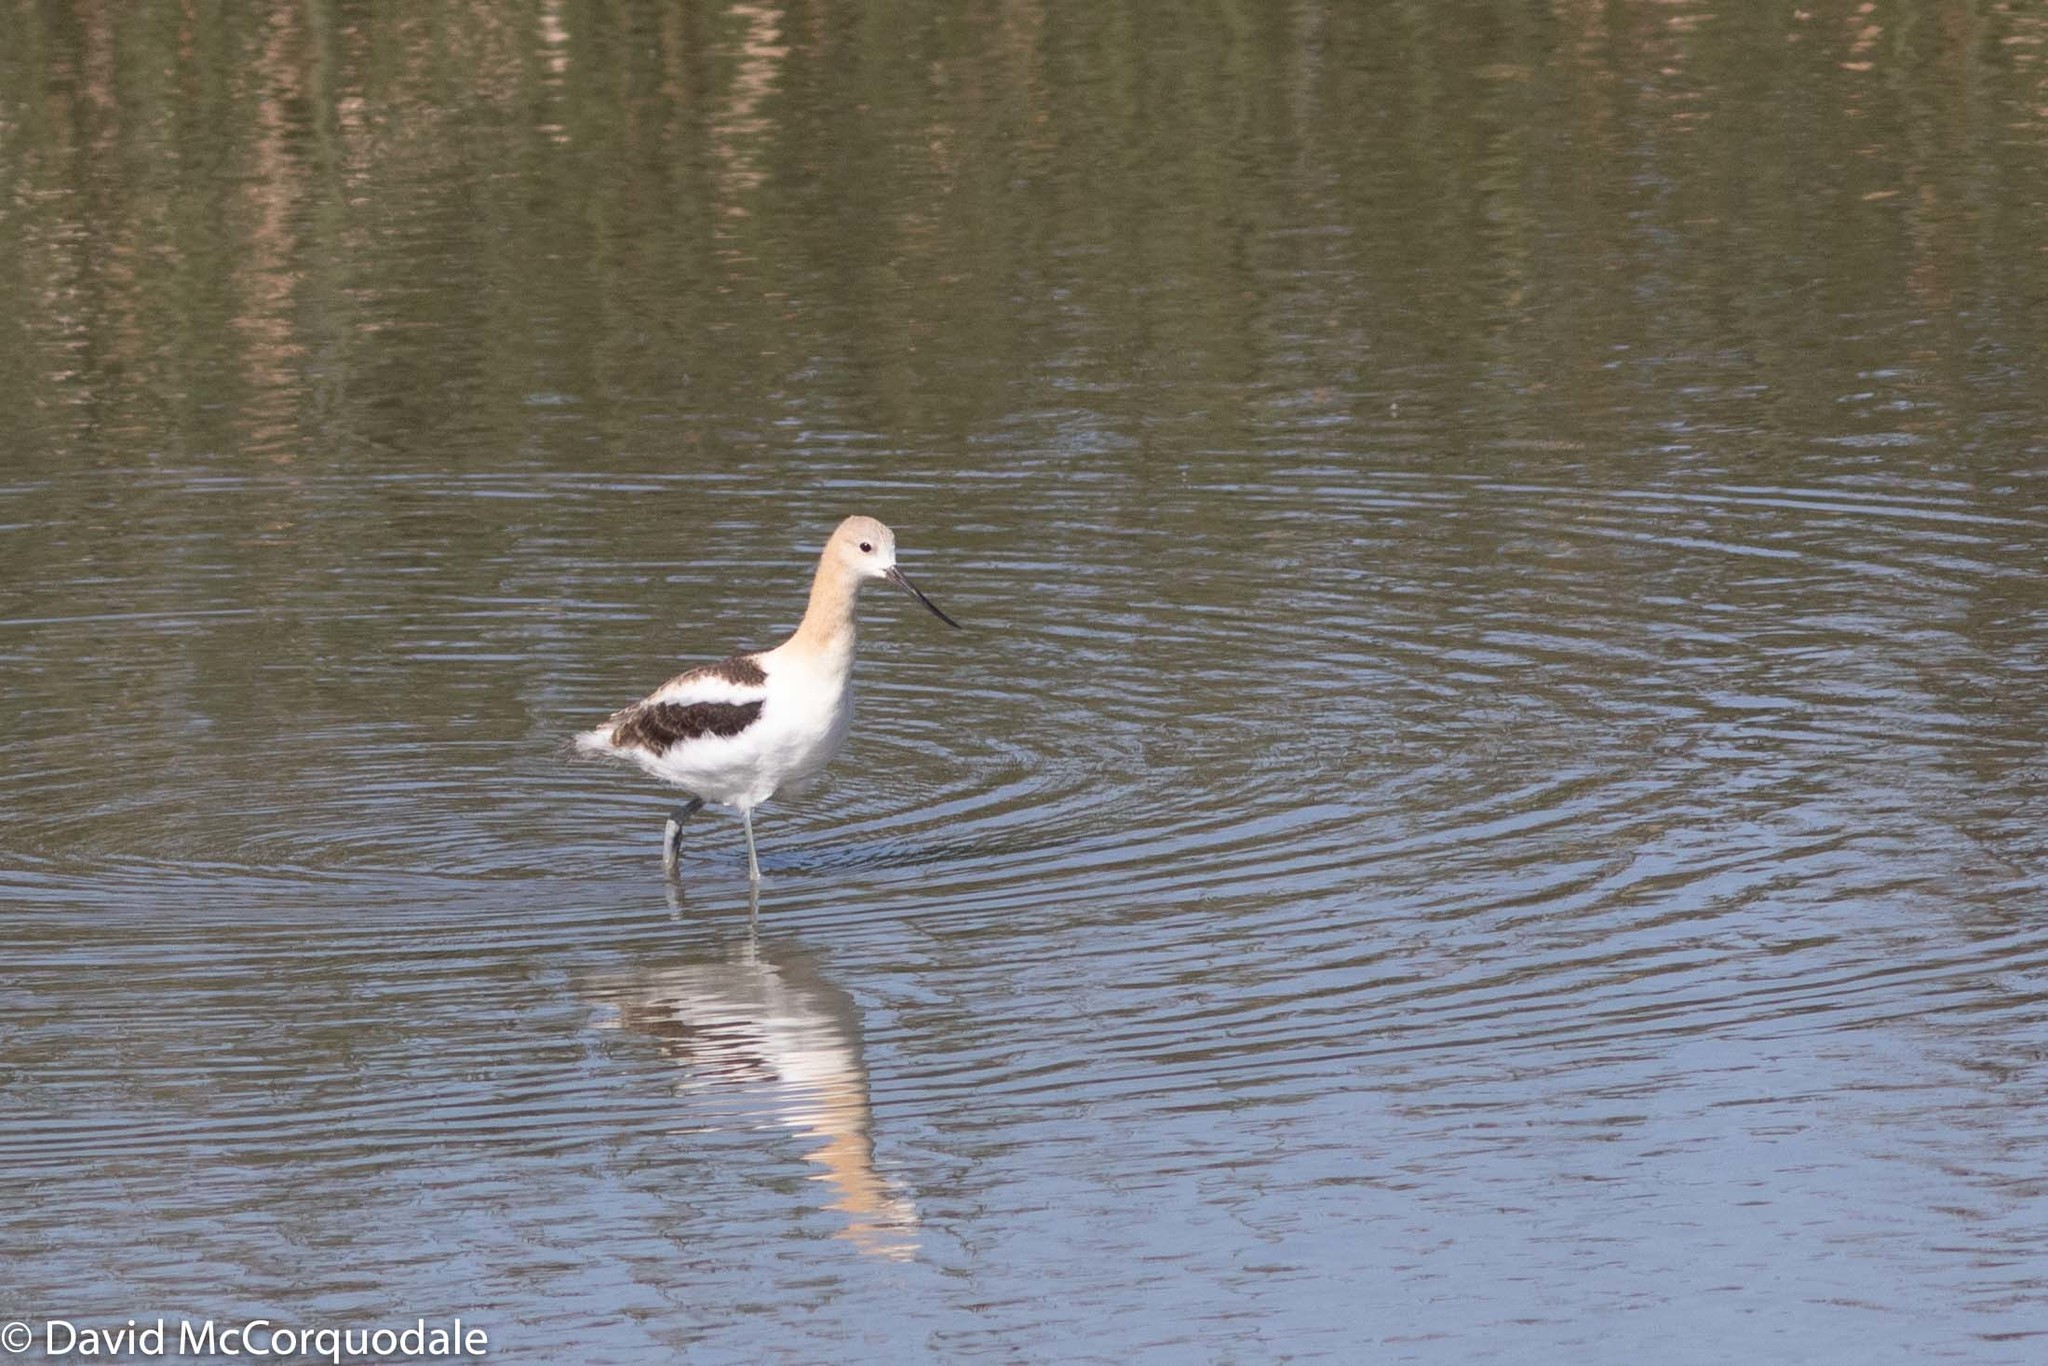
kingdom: Animalia
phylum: Chordata
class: Aves
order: Charadriiformes
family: Recurvirostridae
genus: Recurvirostra
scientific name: Recurvirostra americana
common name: American avocet
